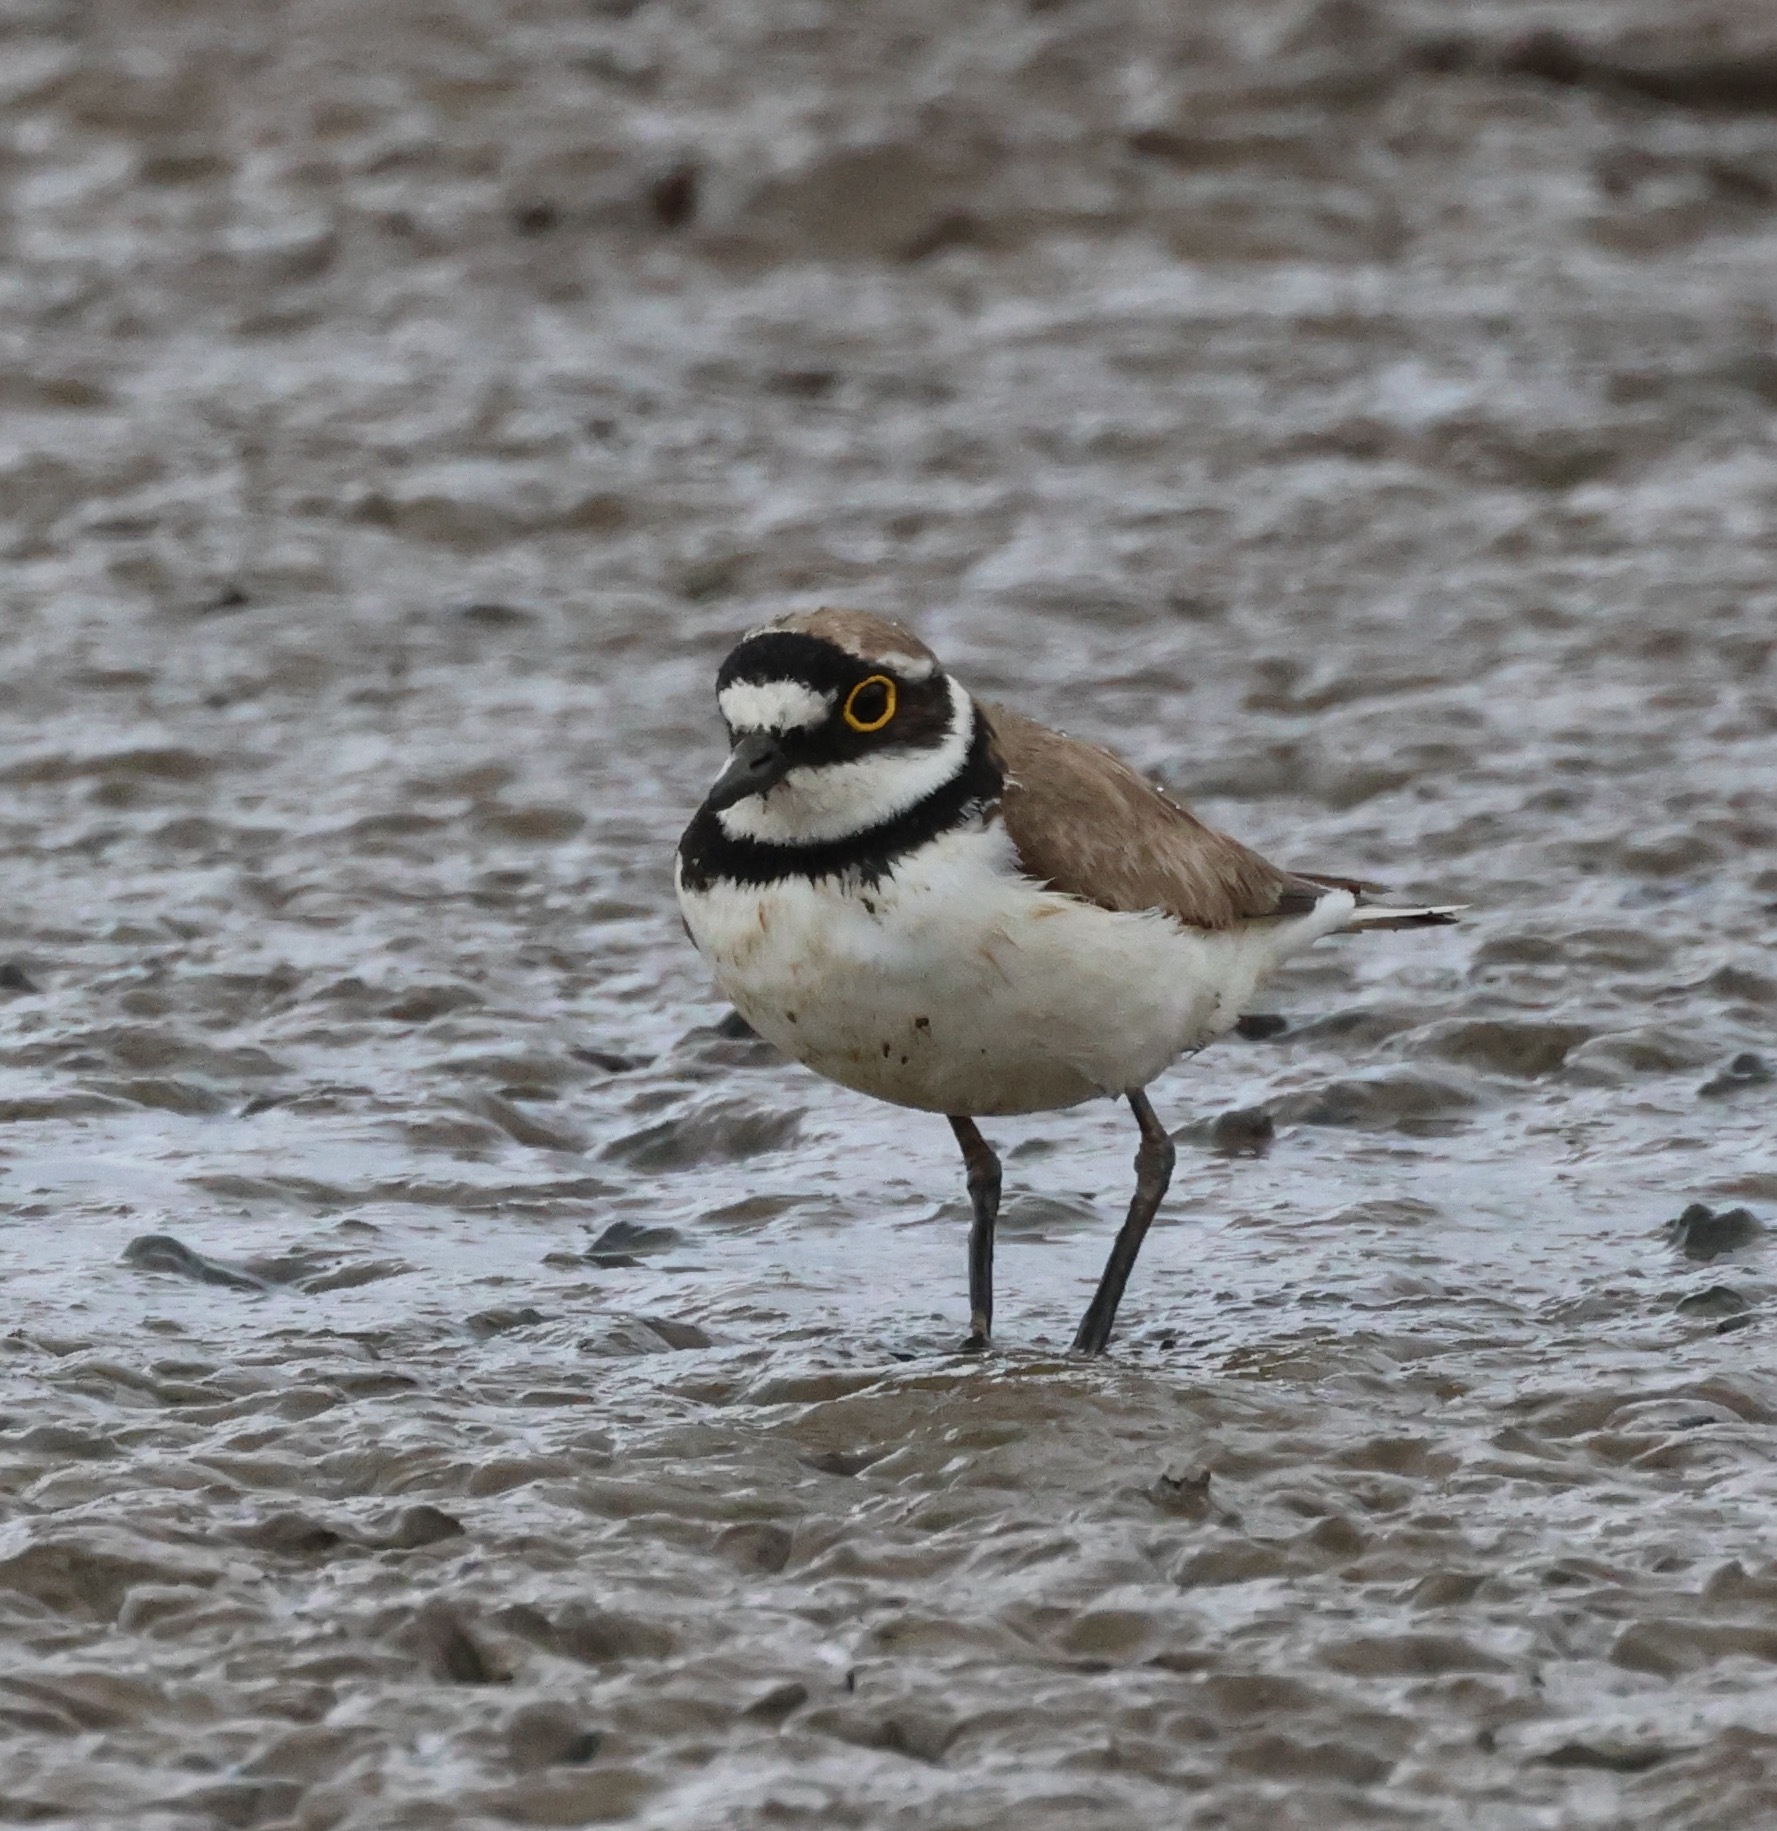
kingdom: Animalia
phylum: Chordata
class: Aves
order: Charadriiformes
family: Charadriidae
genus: Charadrius
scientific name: Charadrius dubius
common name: Little ringed plover
